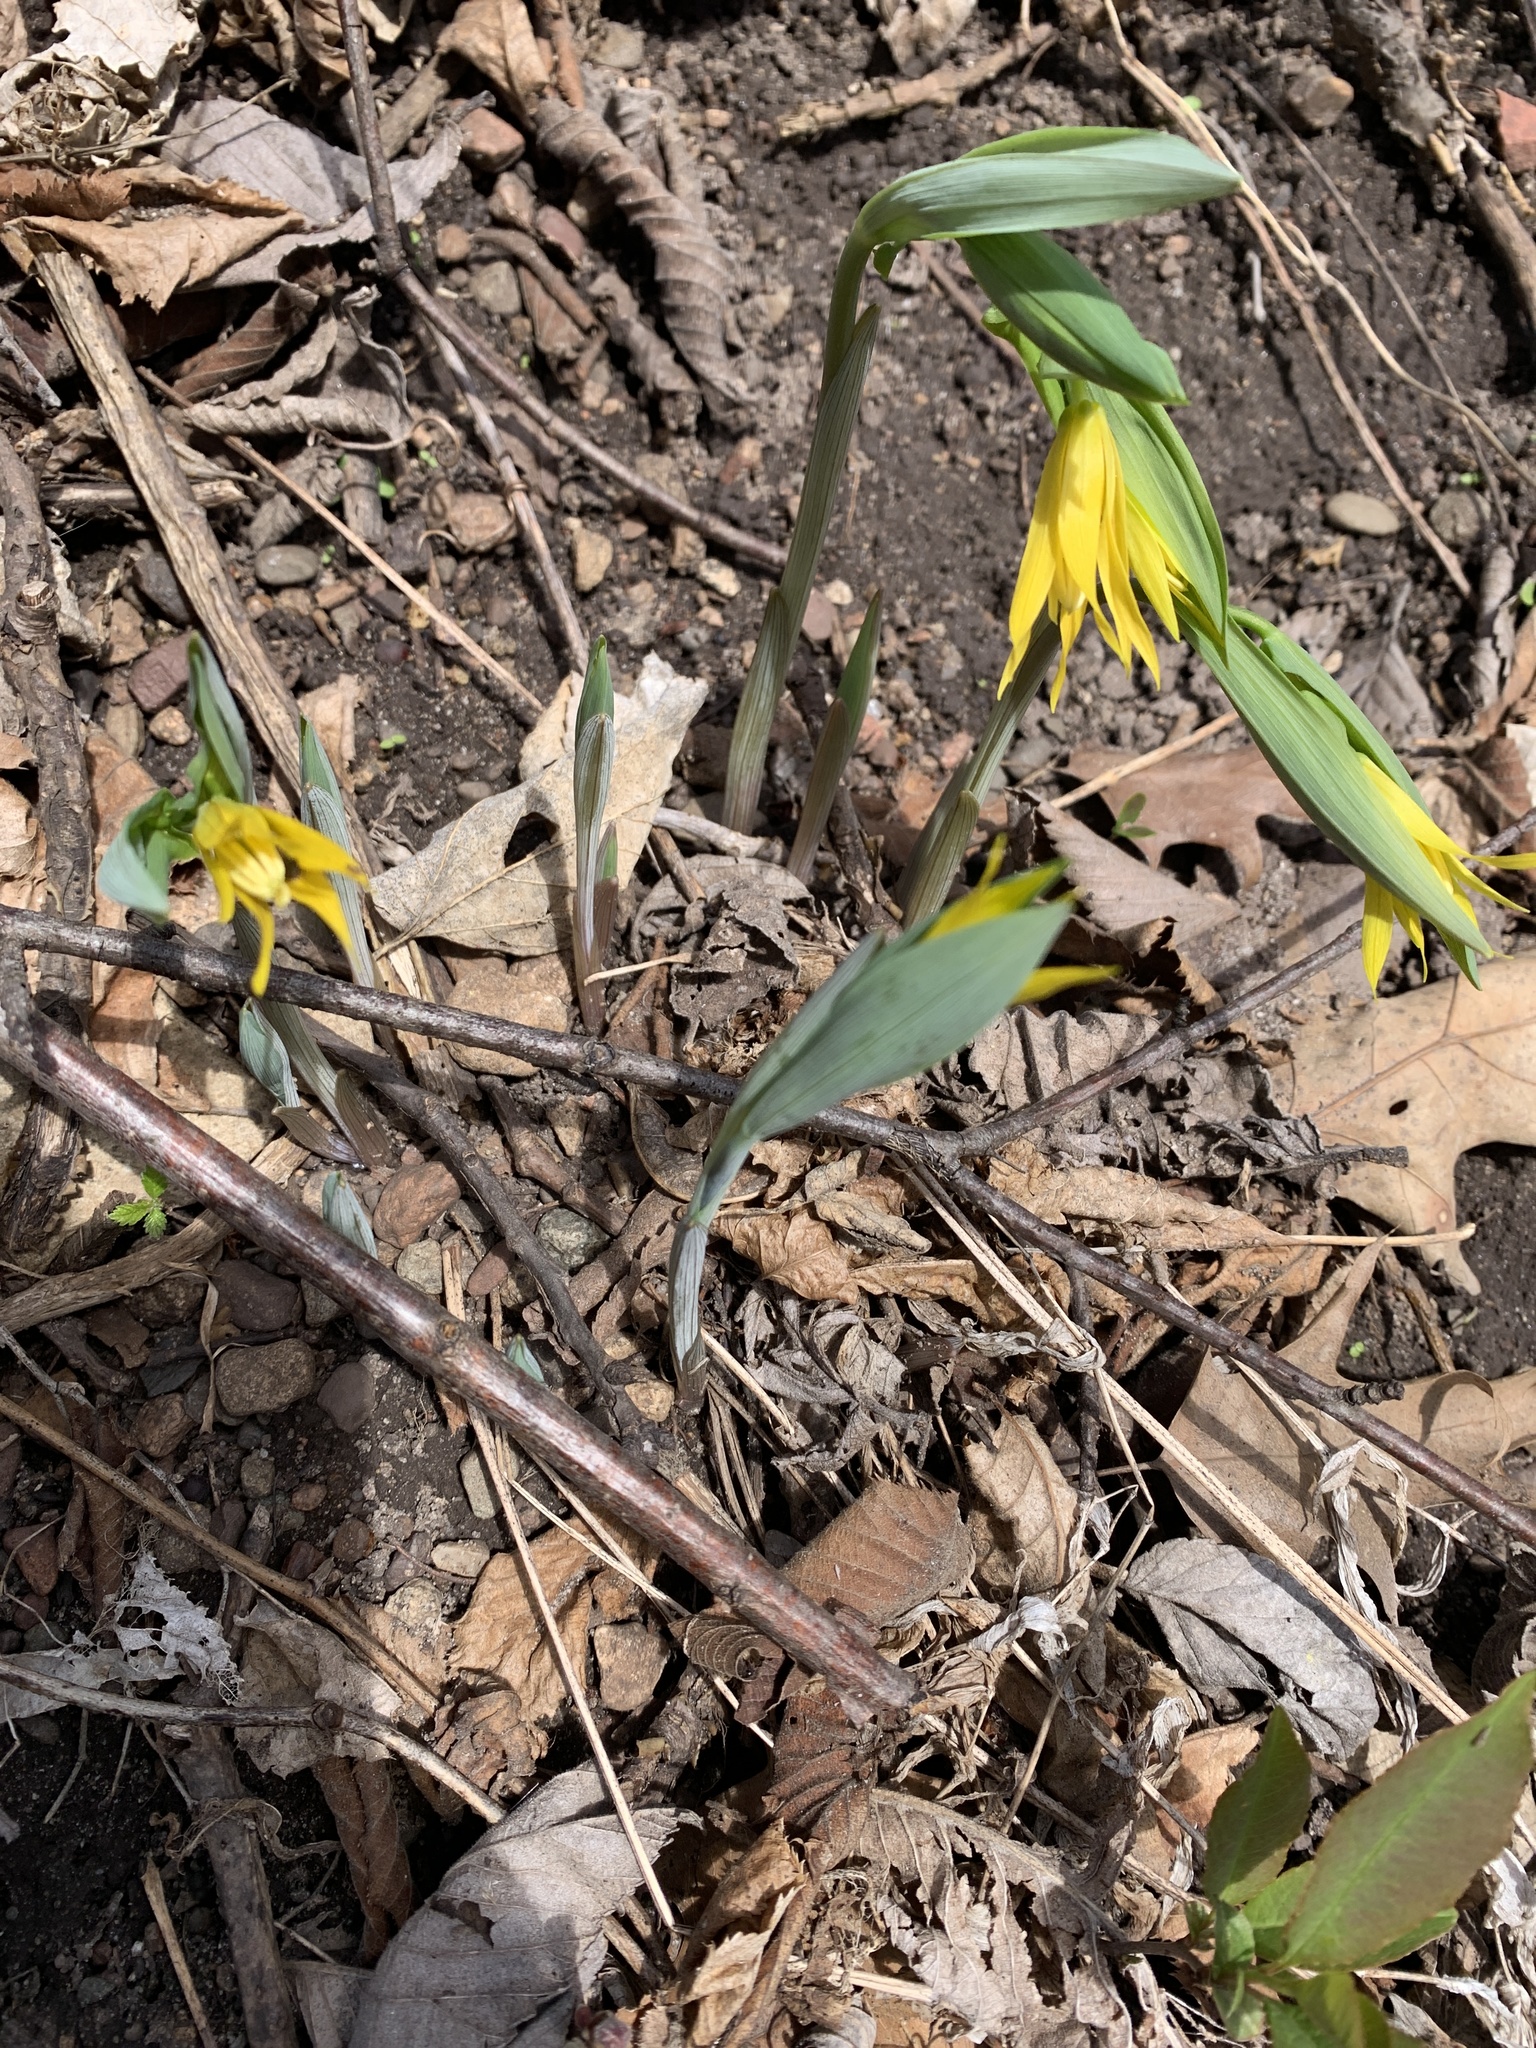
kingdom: Plantae
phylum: Tracheophyta
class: Liliopsida
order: Liliales
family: Colchicaceae
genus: Uvularia
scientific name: Uvularia grandiflora
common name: Bellwort
